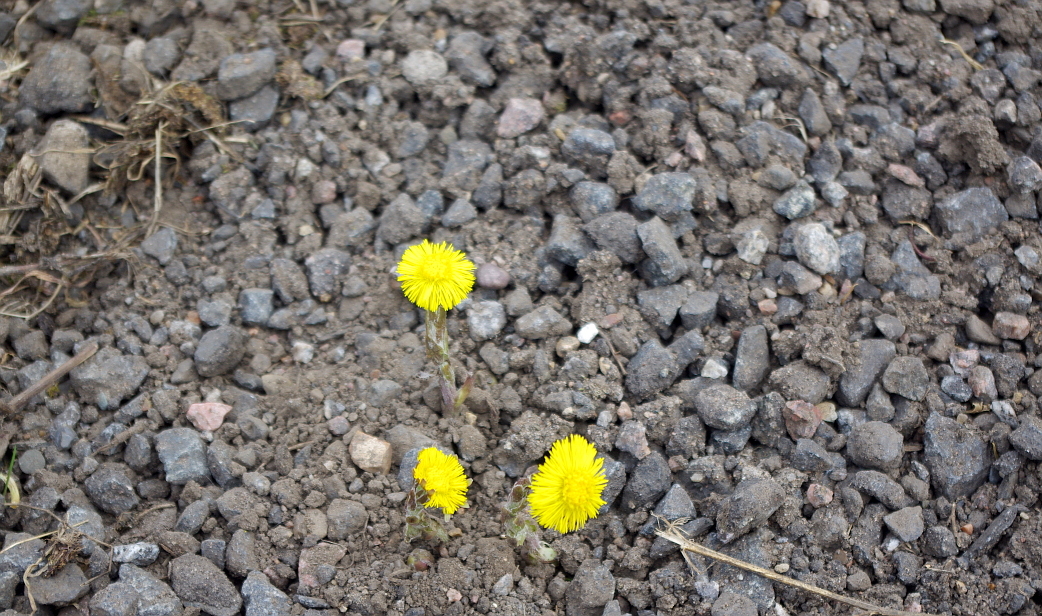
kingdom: Plantae
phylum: Tracheophyta
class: Magnoliopsida
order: Asterales
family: Asteraceae
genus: Tussilago
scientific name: Tussilago farfara
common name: Coltsfoot
